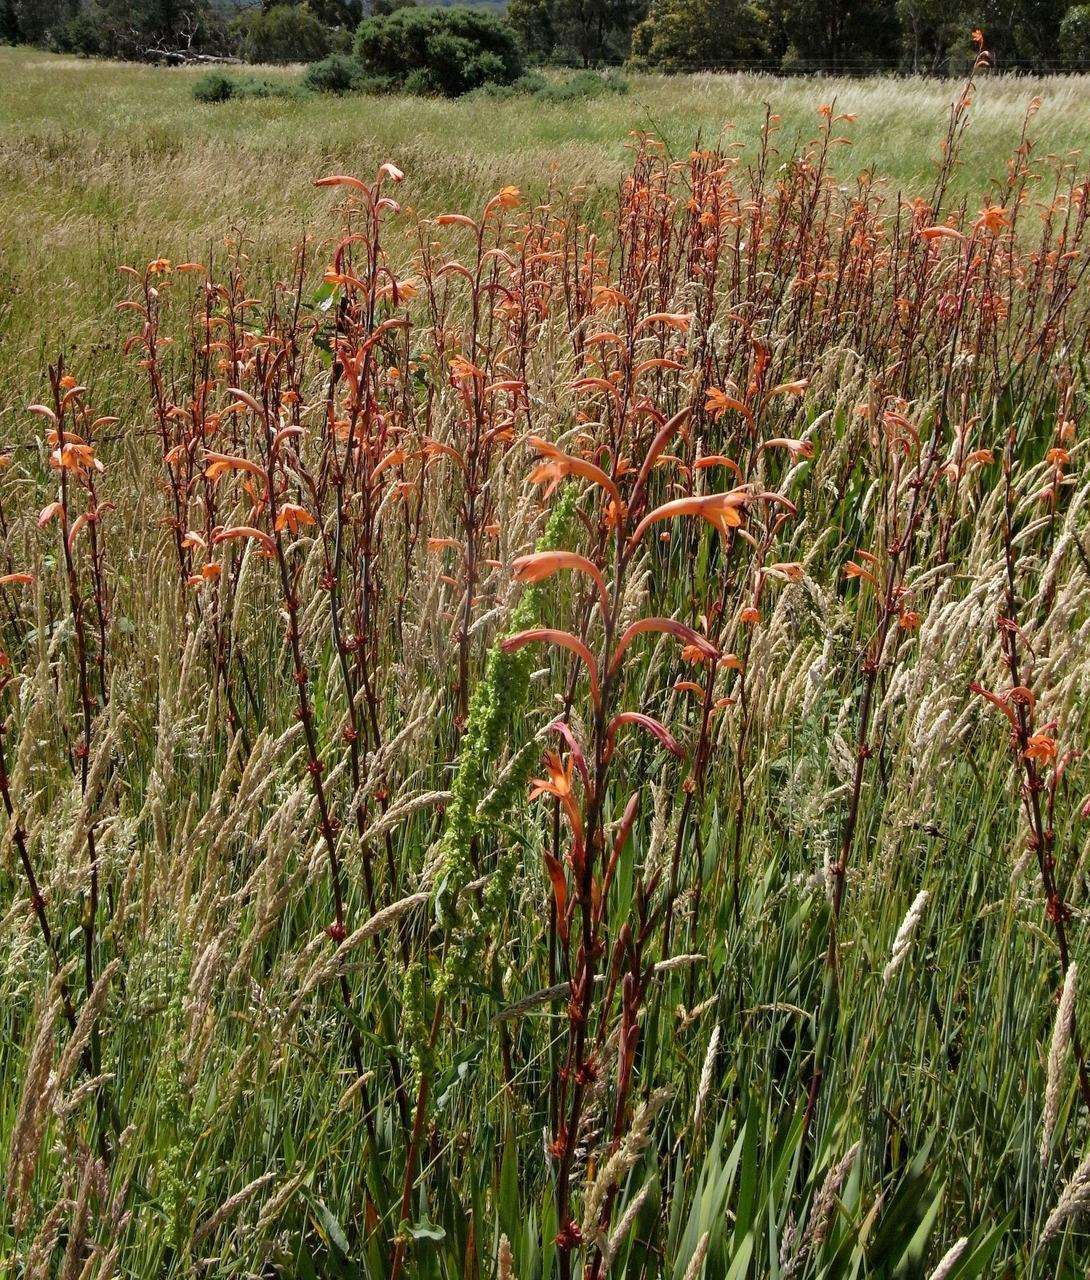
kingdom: Plantae
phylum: Tracheophyta
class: Liliopsida
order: Asparagales
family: Iridaceae
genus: Watsonia
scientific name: Watsonia meriana
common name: Bulbil bugle-lily
